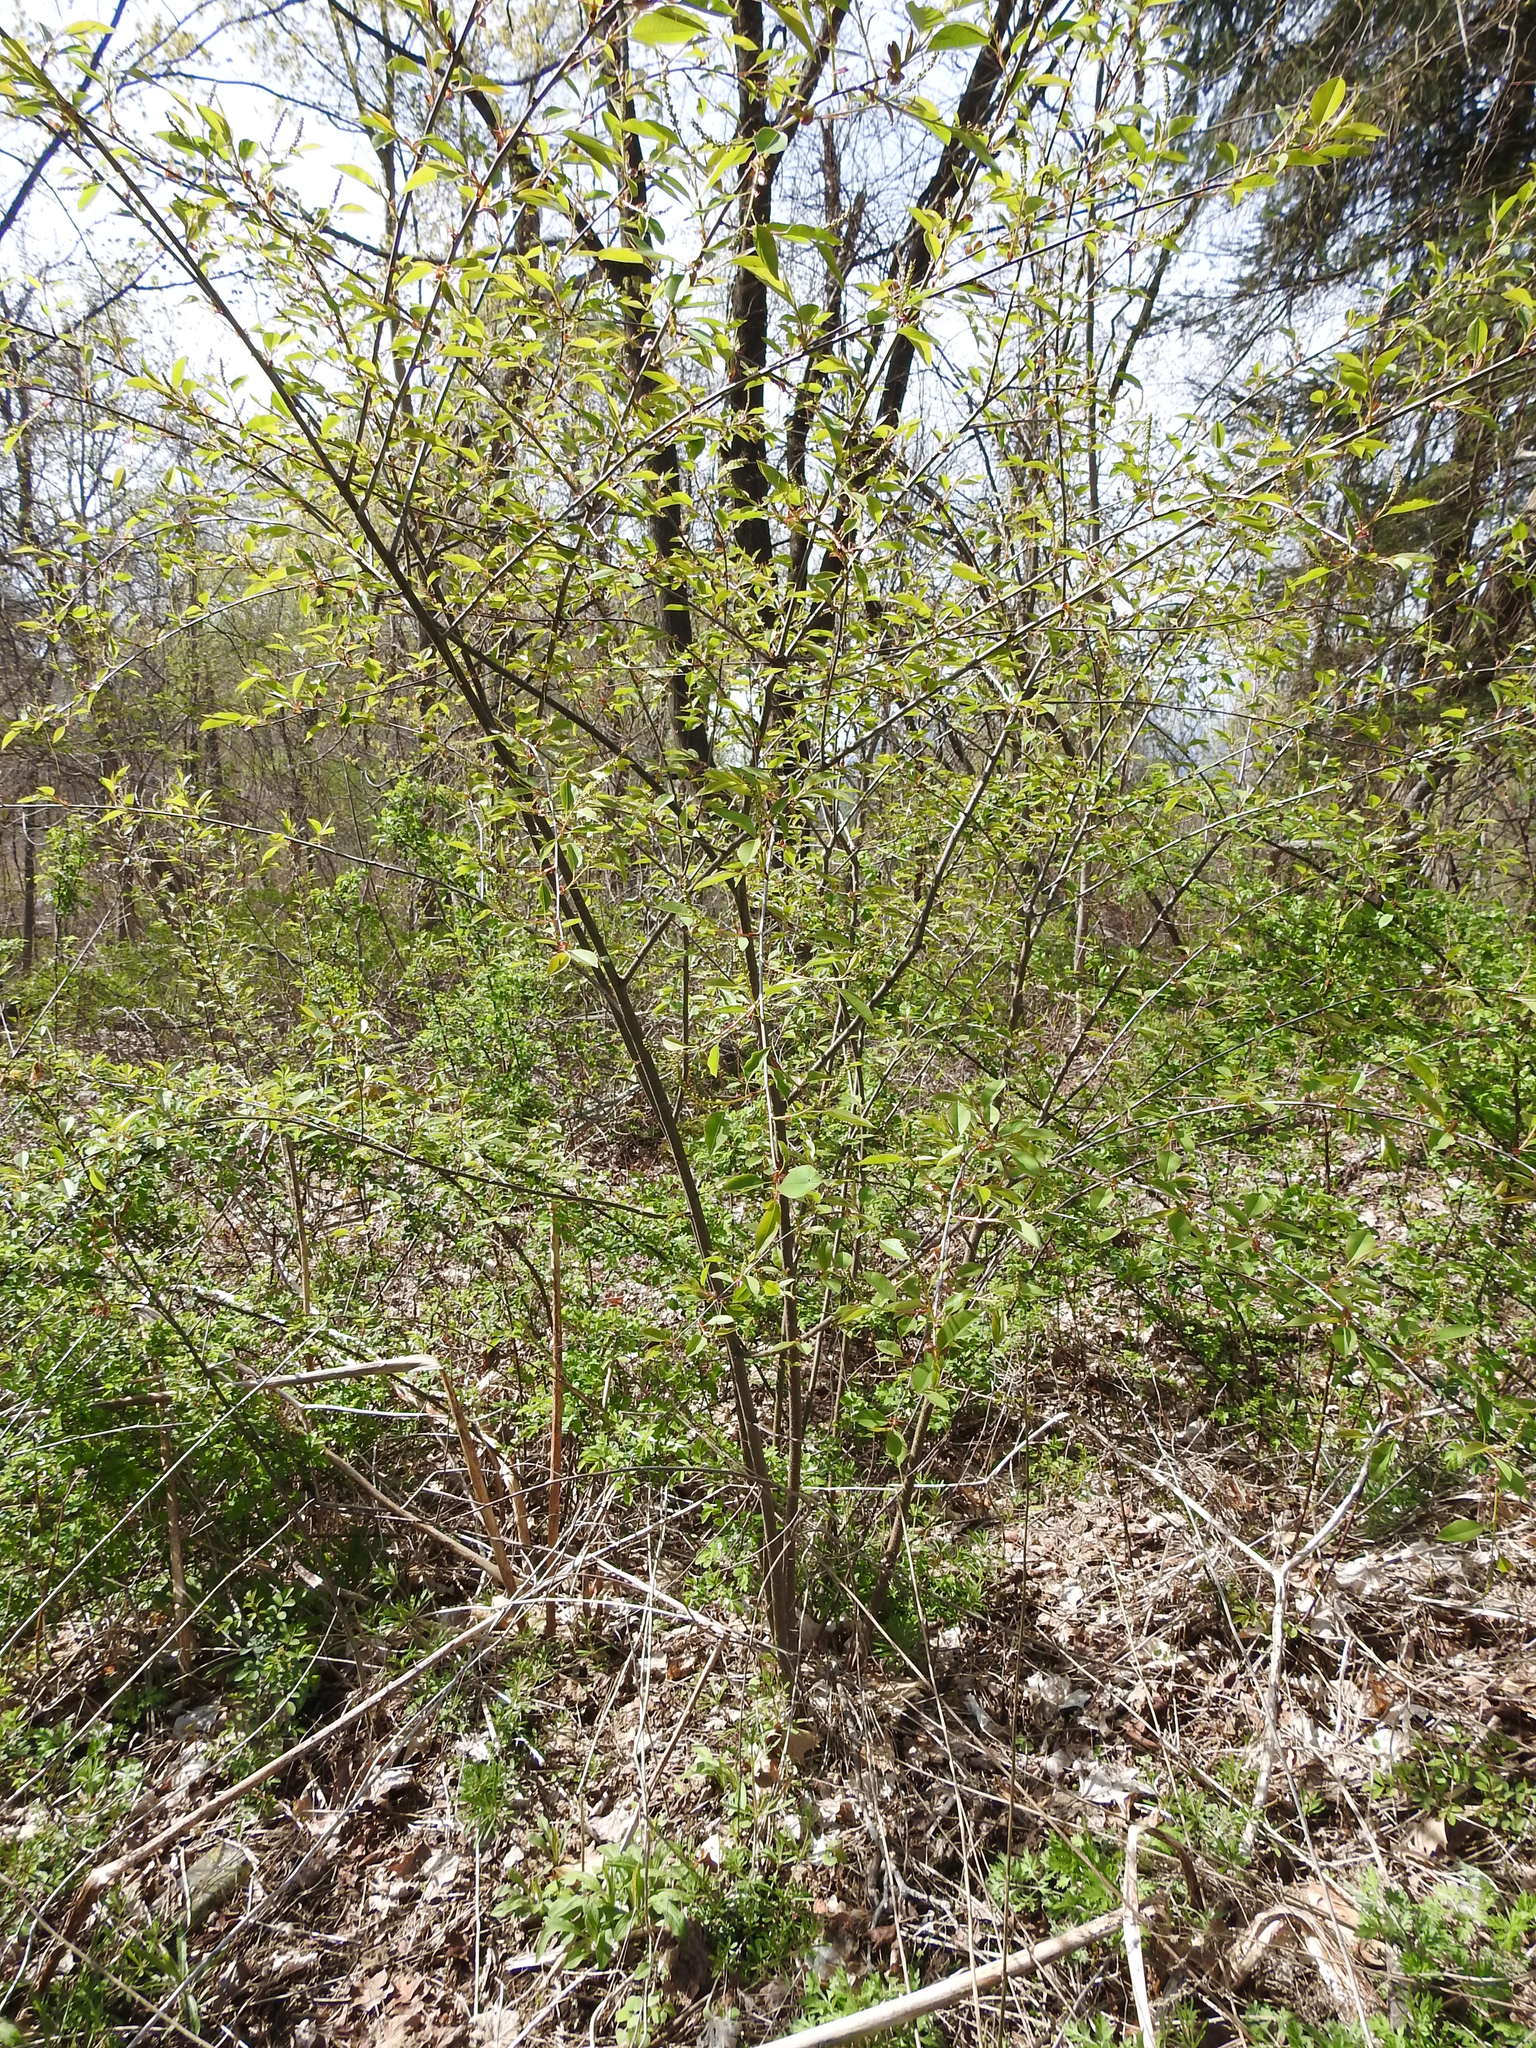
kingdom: Plantae
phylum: Tracheophyta
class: Magnoliopsida
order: Rosales
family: Rosaceae
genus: Prunus
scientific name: Prunus serotina
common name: Black cherry
